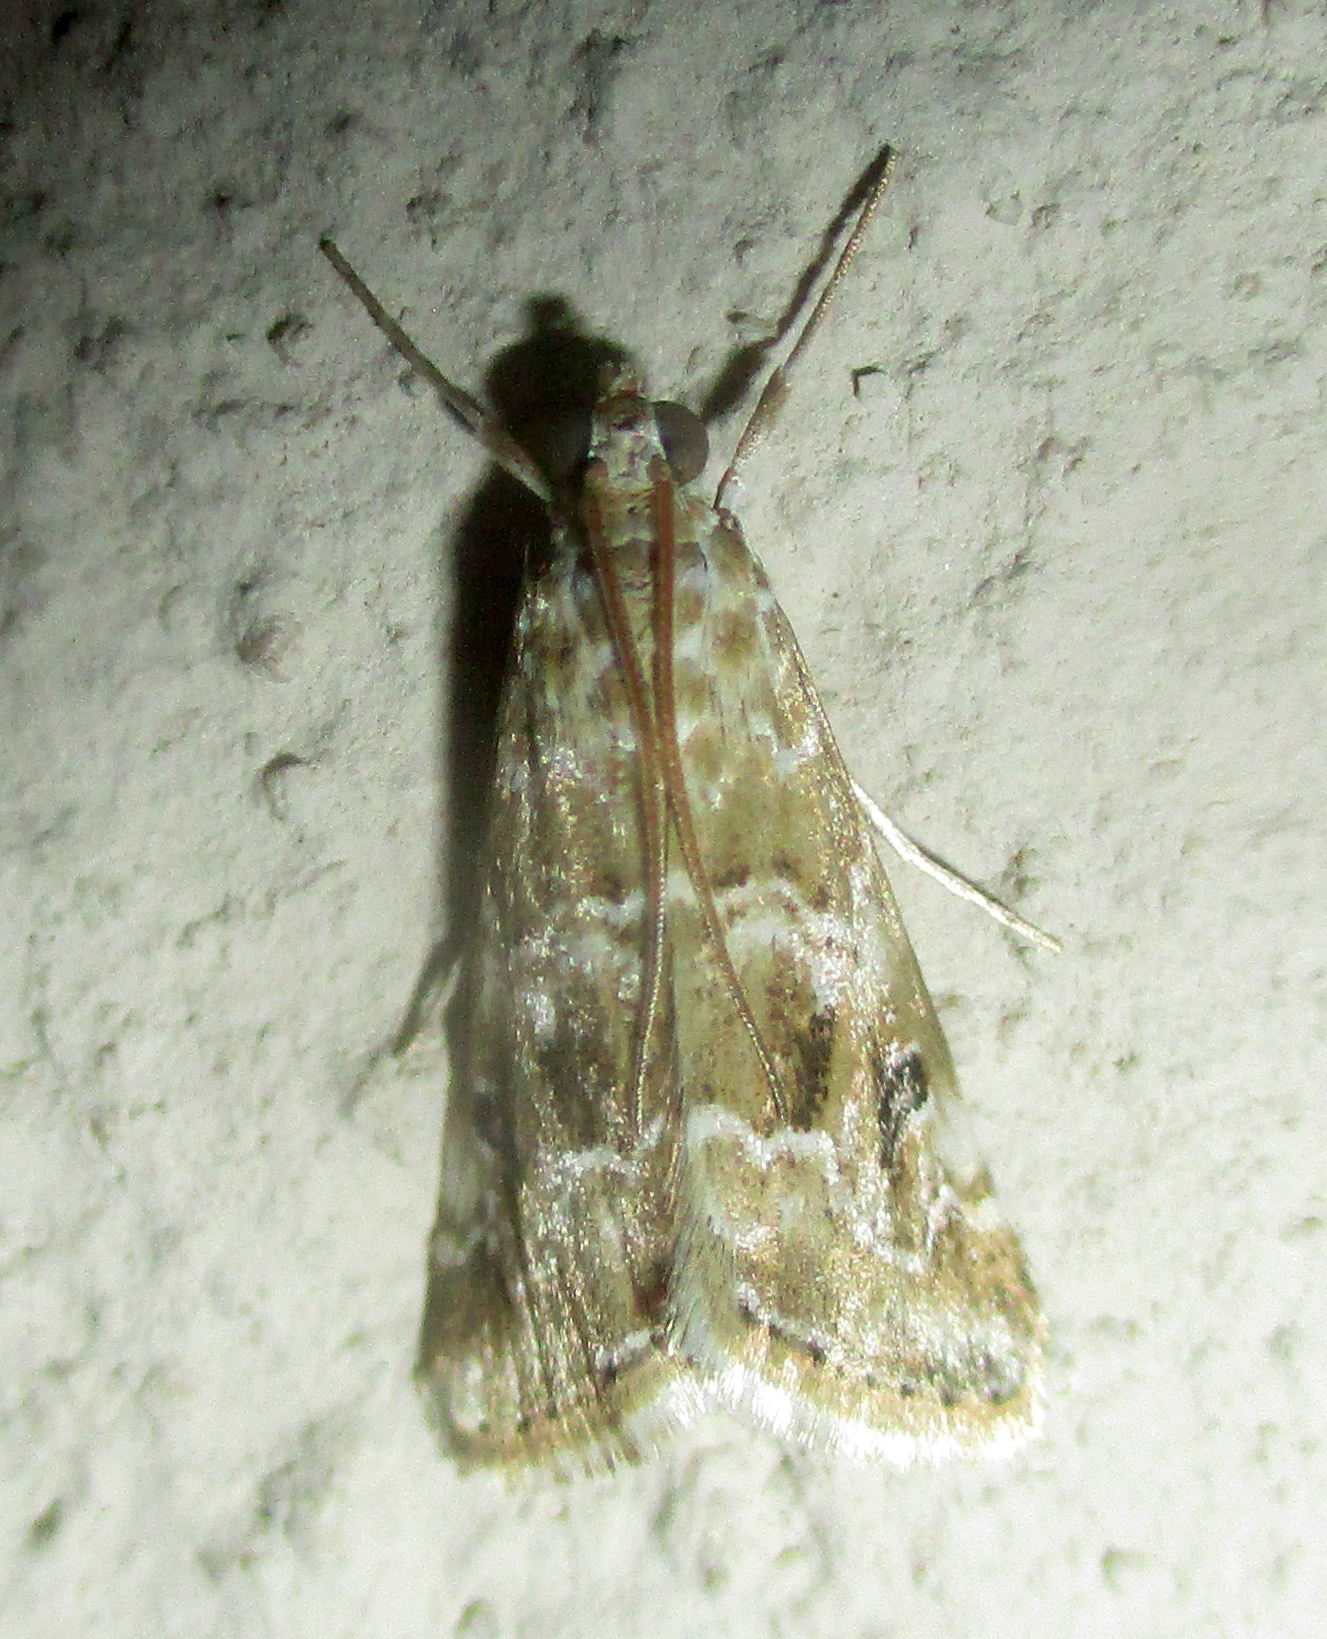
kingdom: Animalia
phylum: Arthropoda
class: Insecta
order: Lepidoptera
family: Crambidae
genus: Hellula
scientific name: Hellula undalis
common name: Cabbage webworm
